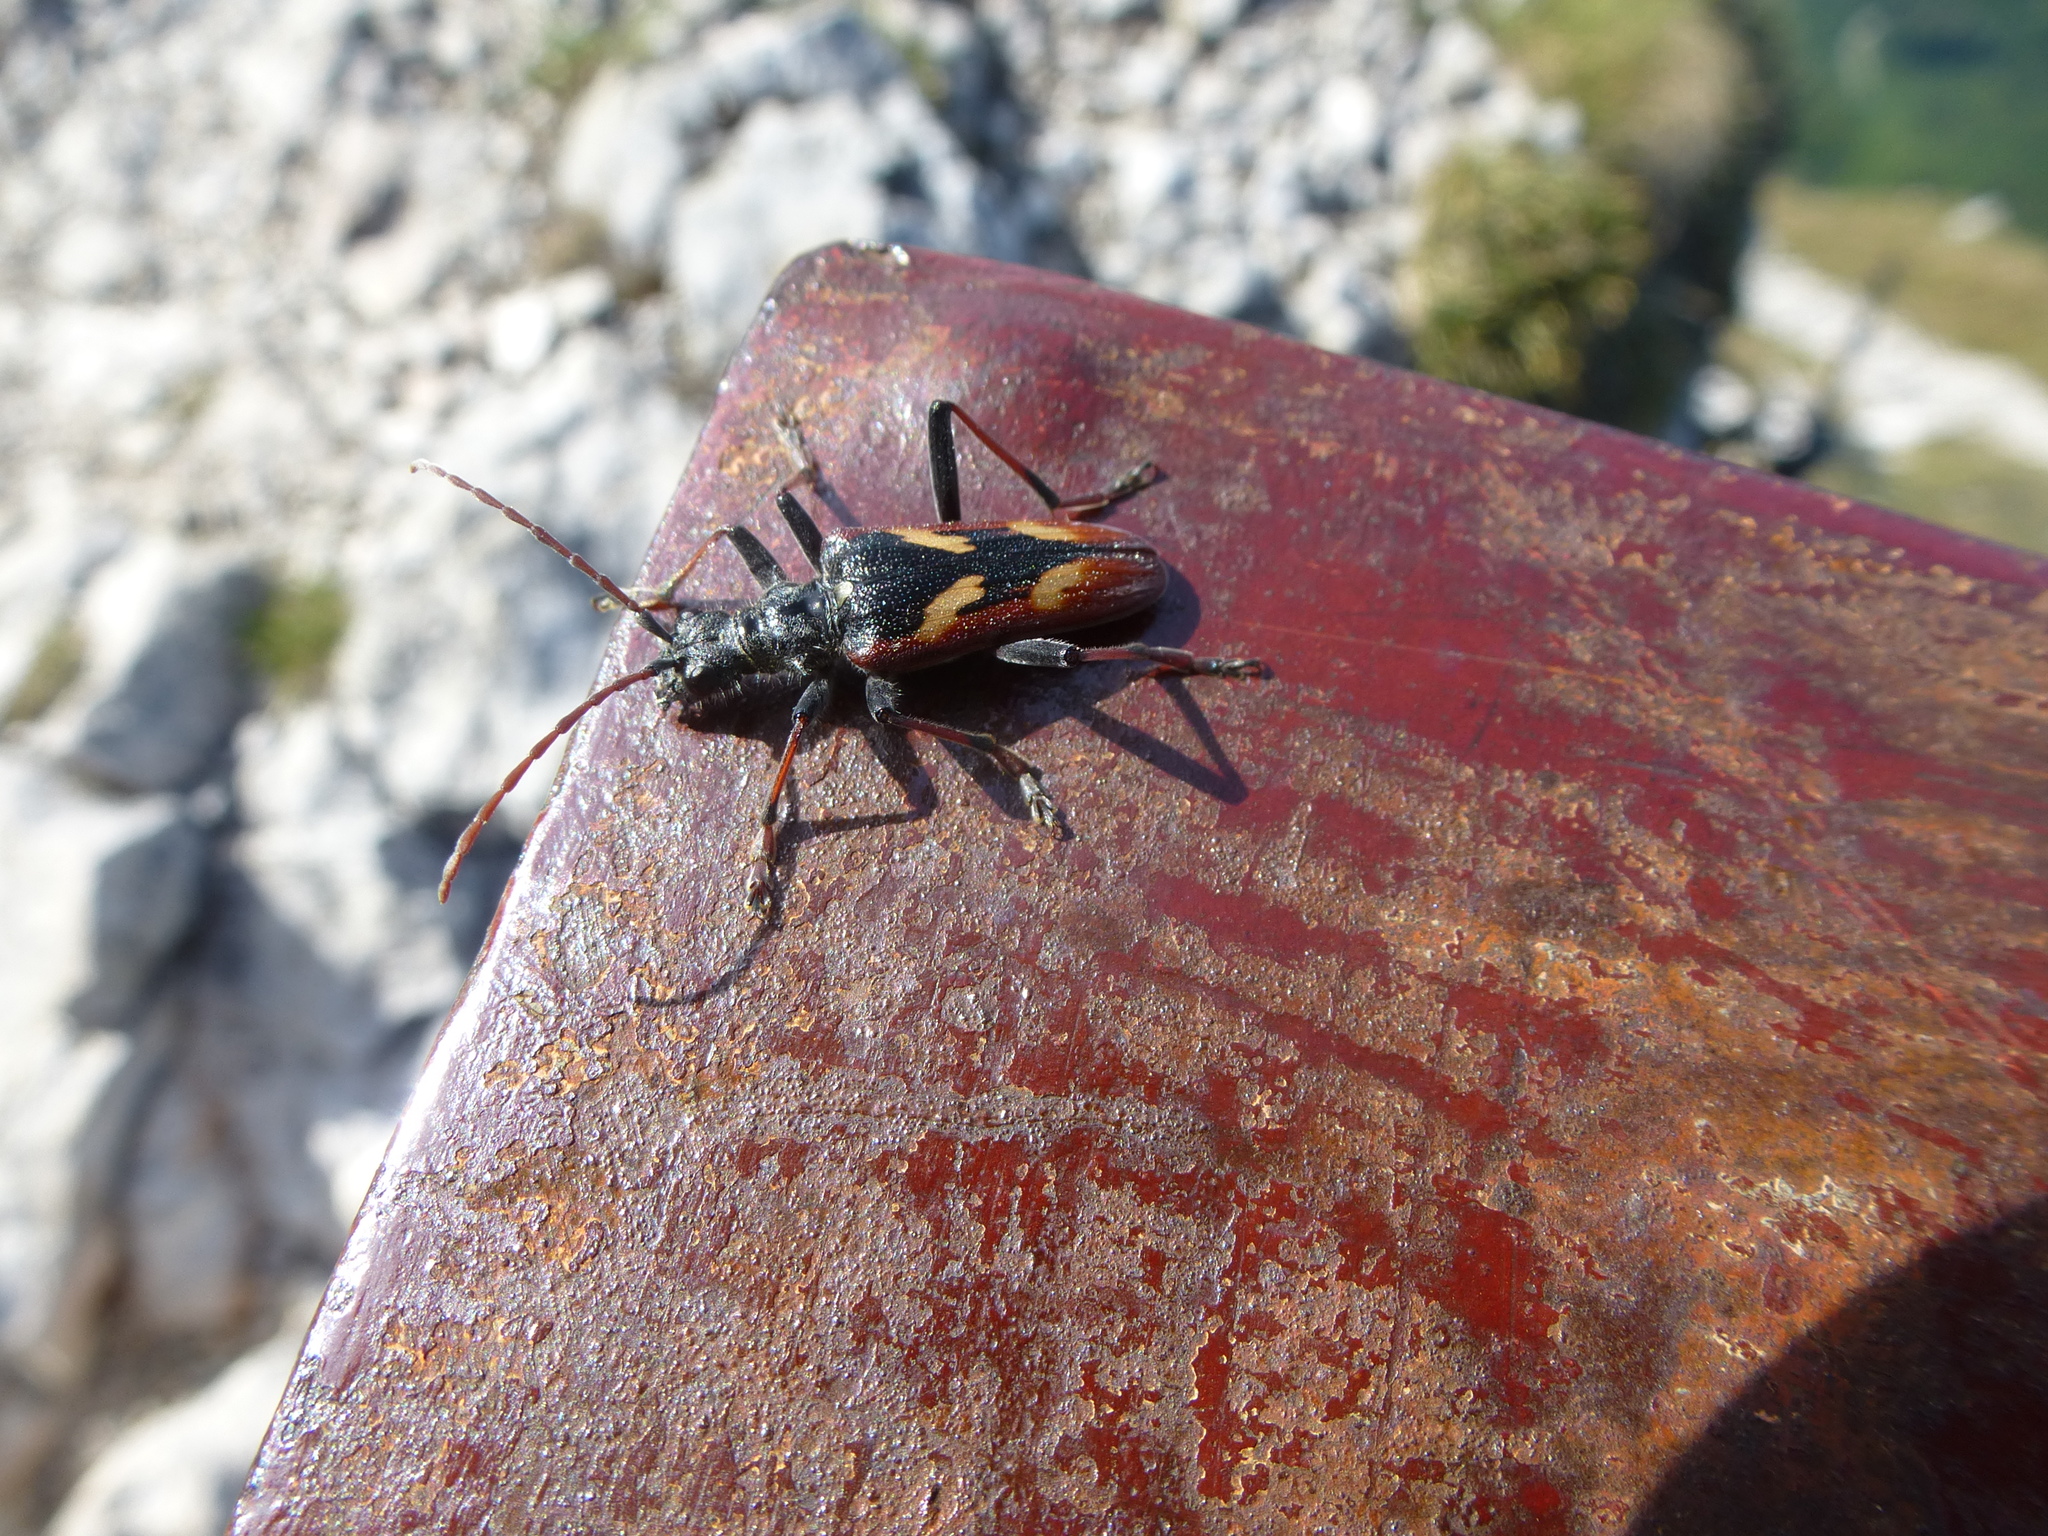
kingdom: Animalia
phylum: Arthropoda
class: Insecta
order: Coleoptera
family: Cerambycidae
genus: Rhagium
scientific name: Rhagium bifasciatum
